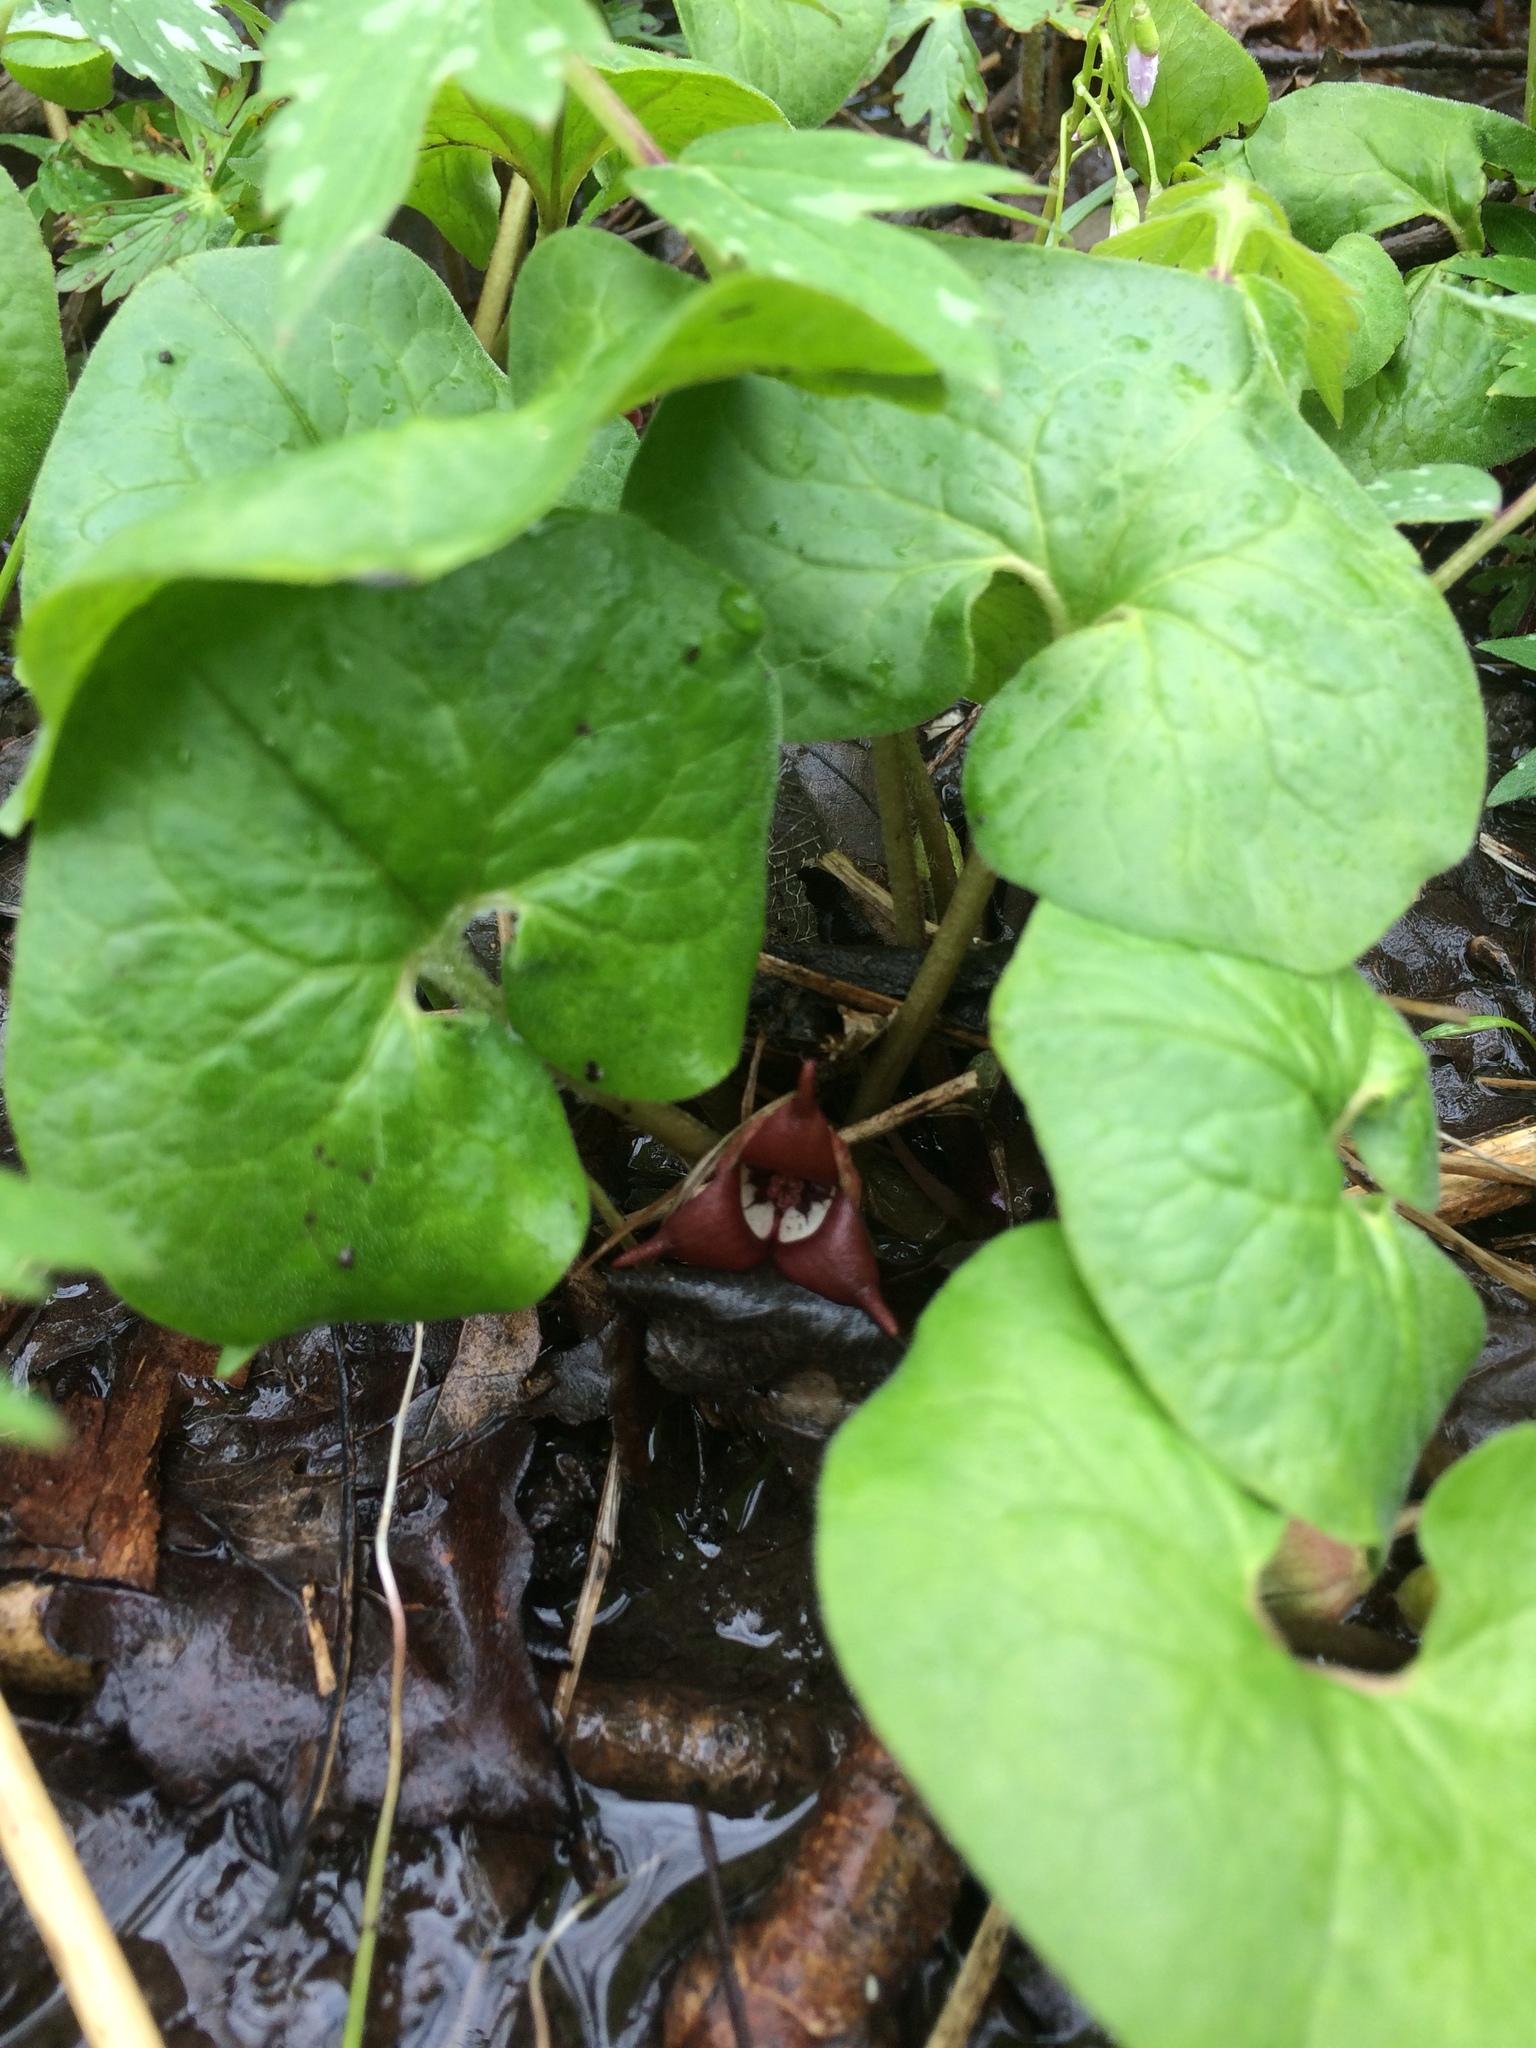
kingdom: Plantae
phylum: Tracheophyta
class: Magnoliopsida
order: Piperales
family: Aristolochiaceae
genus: Asarum
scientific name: Asarum canadense
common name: Wild ginger
